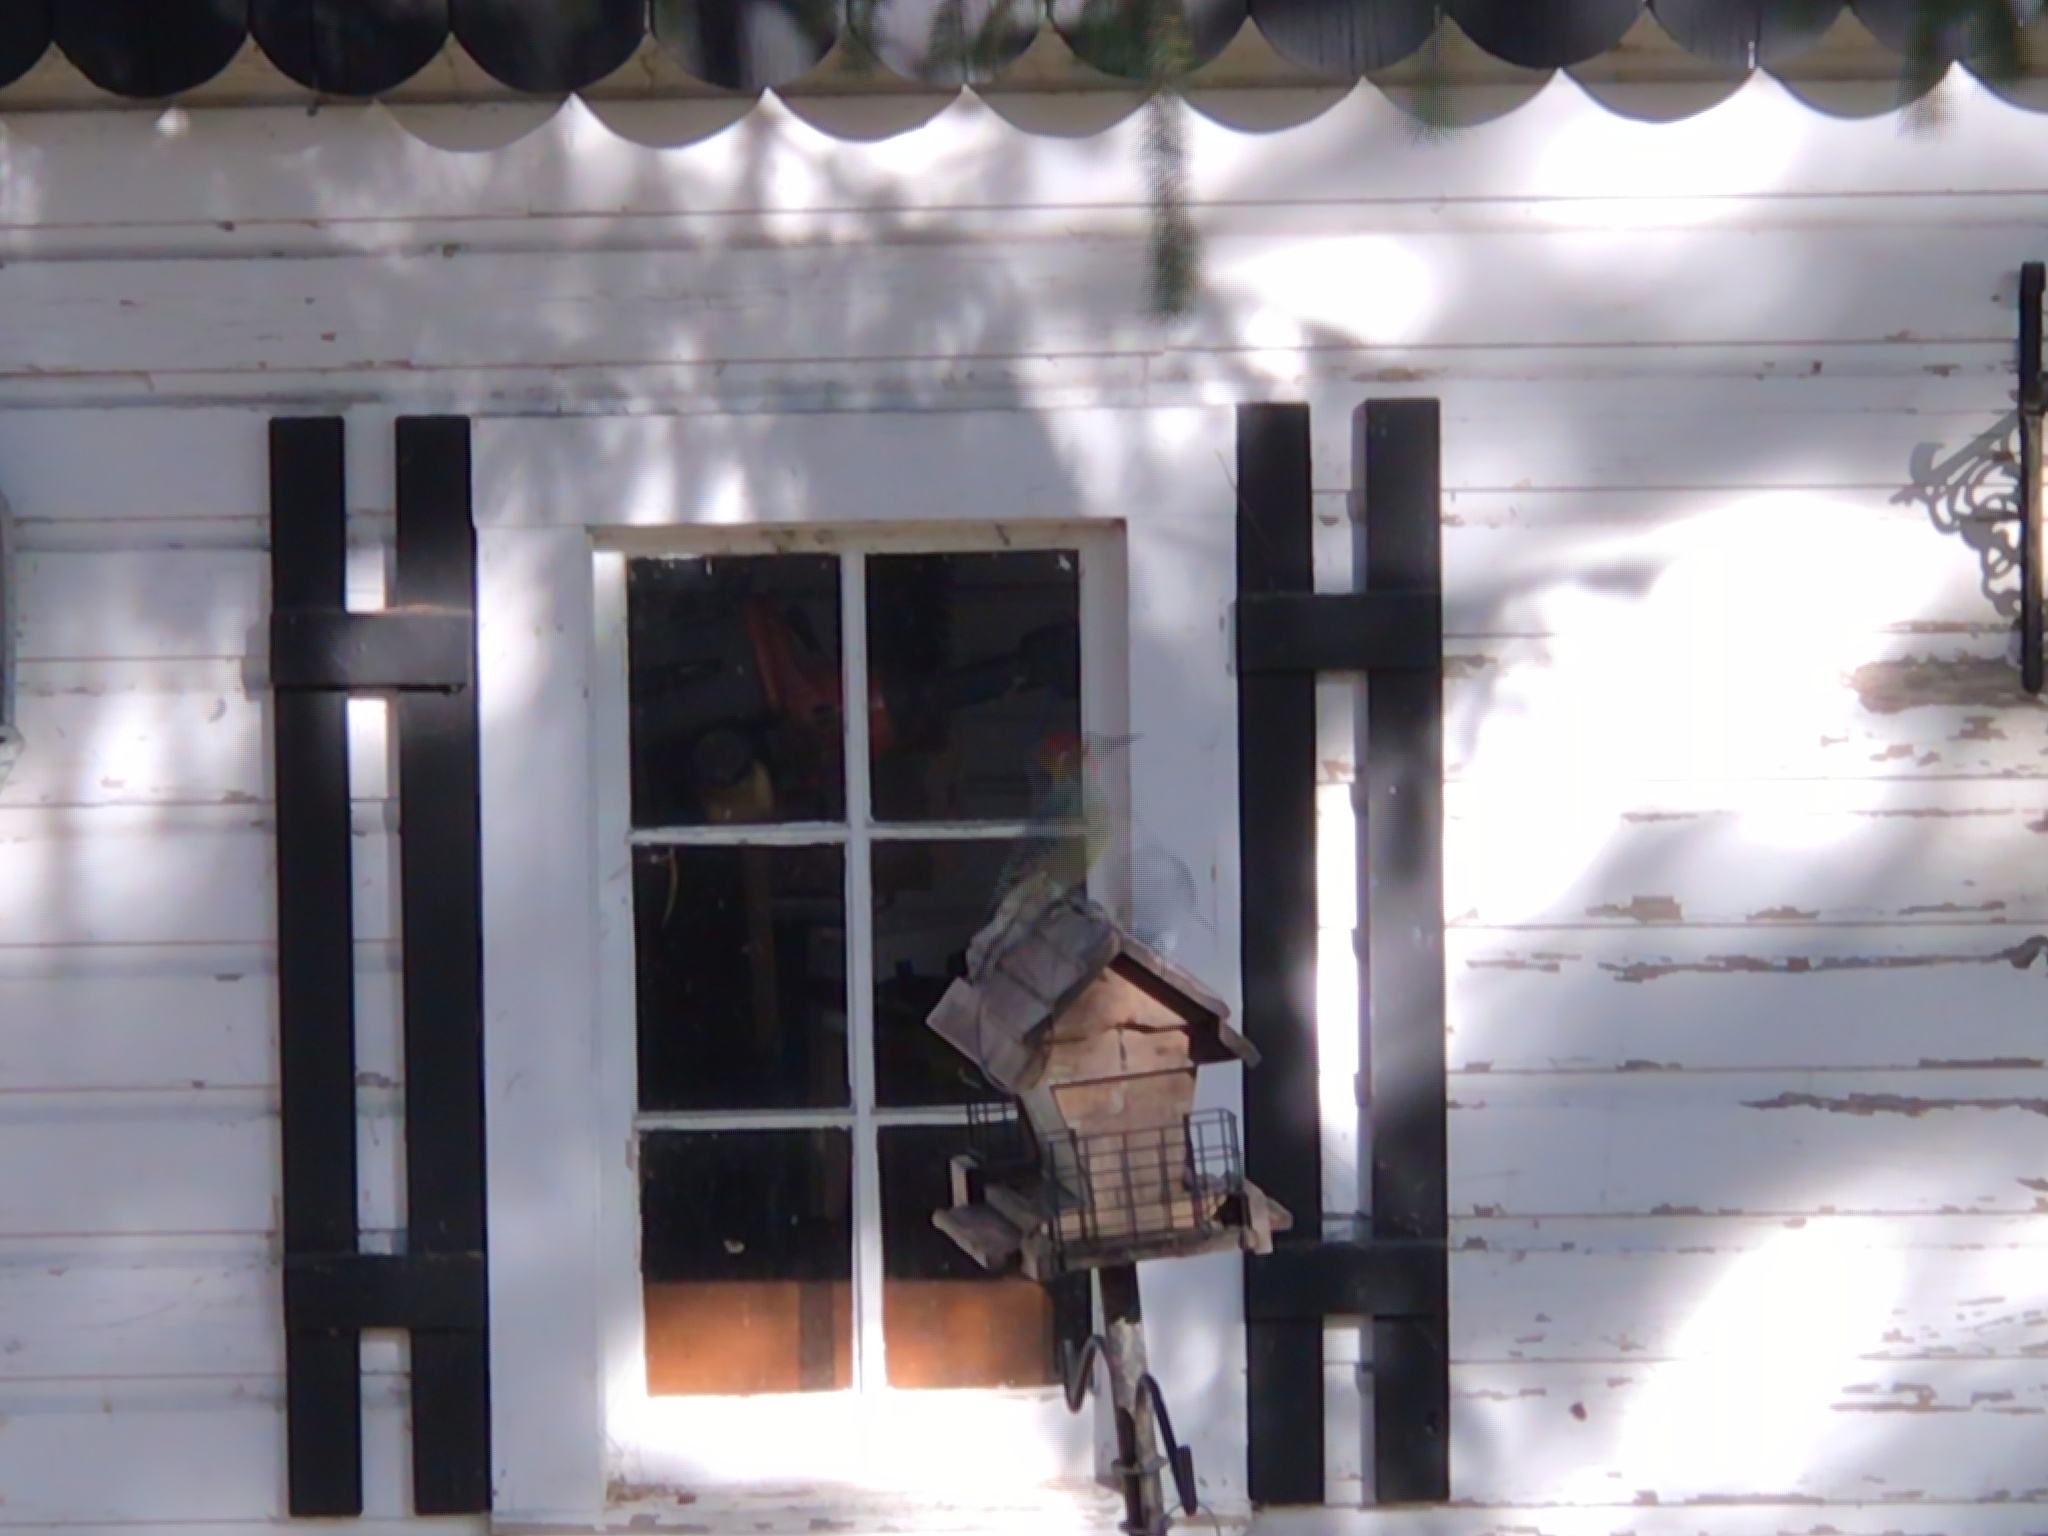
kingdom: Animalia
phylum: Chordata
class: Aves
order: Piciformes
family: Picidae
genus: Melanerpes
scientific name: Melanerpes carolinus
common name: Red-bellied woodpecker
